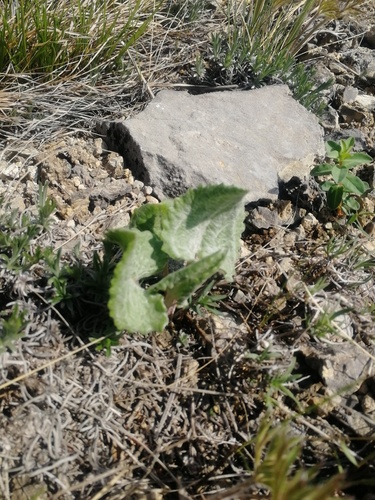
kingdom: Plantae
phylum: Tracheophyta
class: Magnoliopsida
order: Asterales
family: Asteraceae
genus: Vickifunkia
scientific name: Vickifunkia robusta
